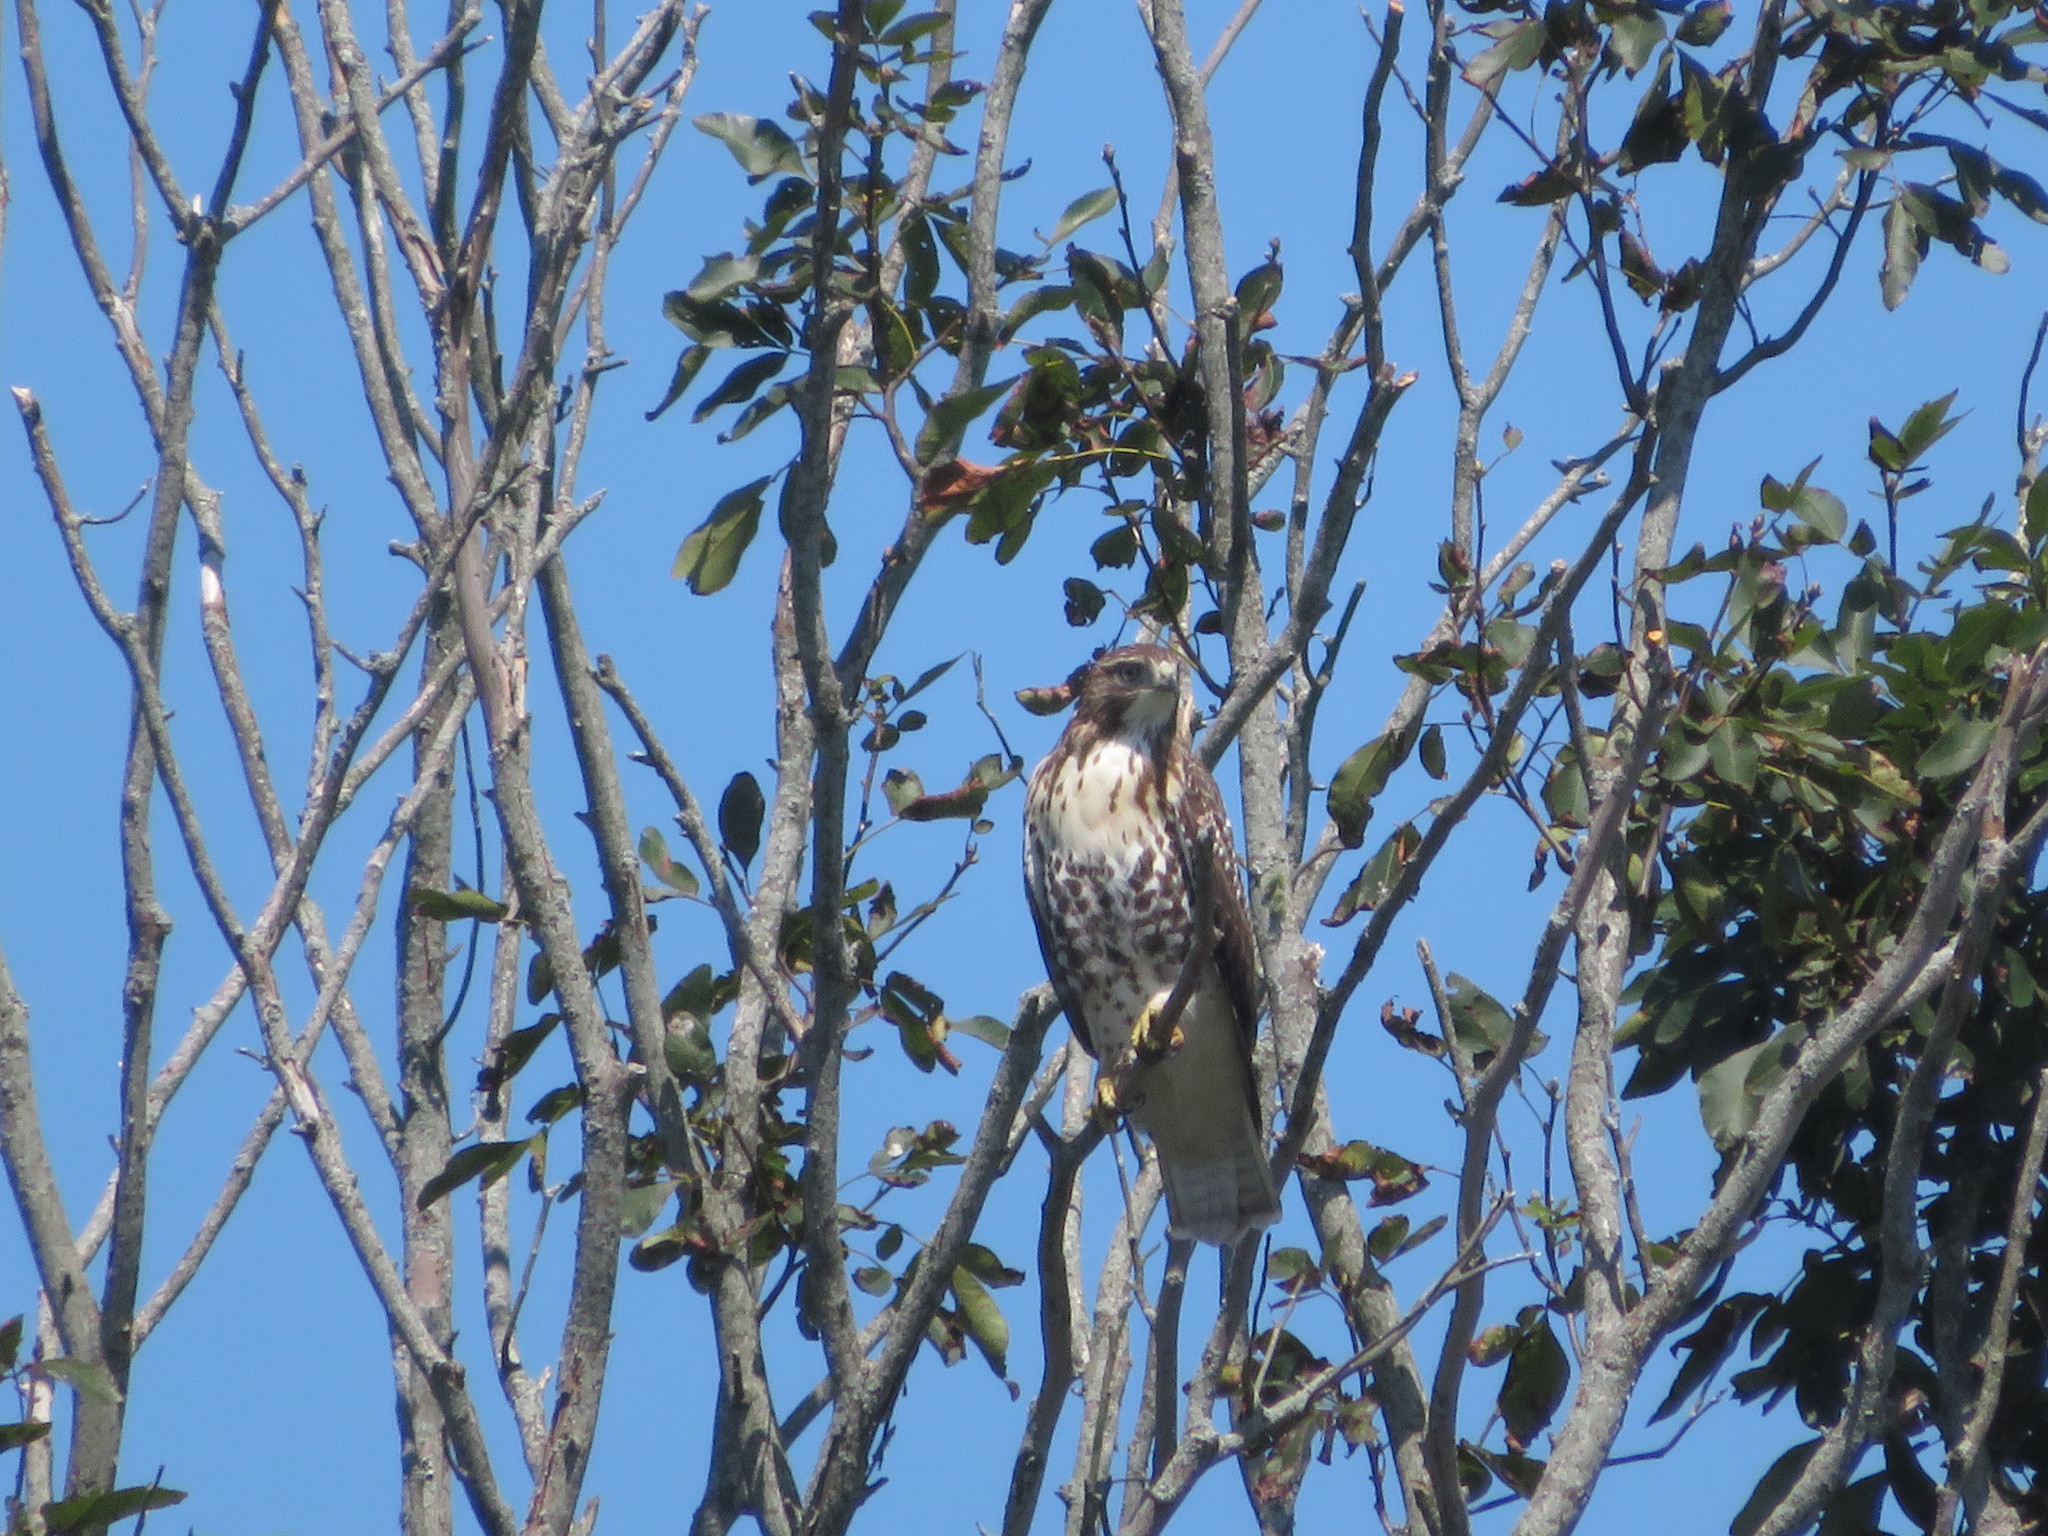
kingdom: Animalia
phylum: Chordata
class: Aves
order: Accipitriformes
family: Accipitridae
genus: Buteo
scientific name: Buteo jamaicensis
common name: Red-tailed hawk
